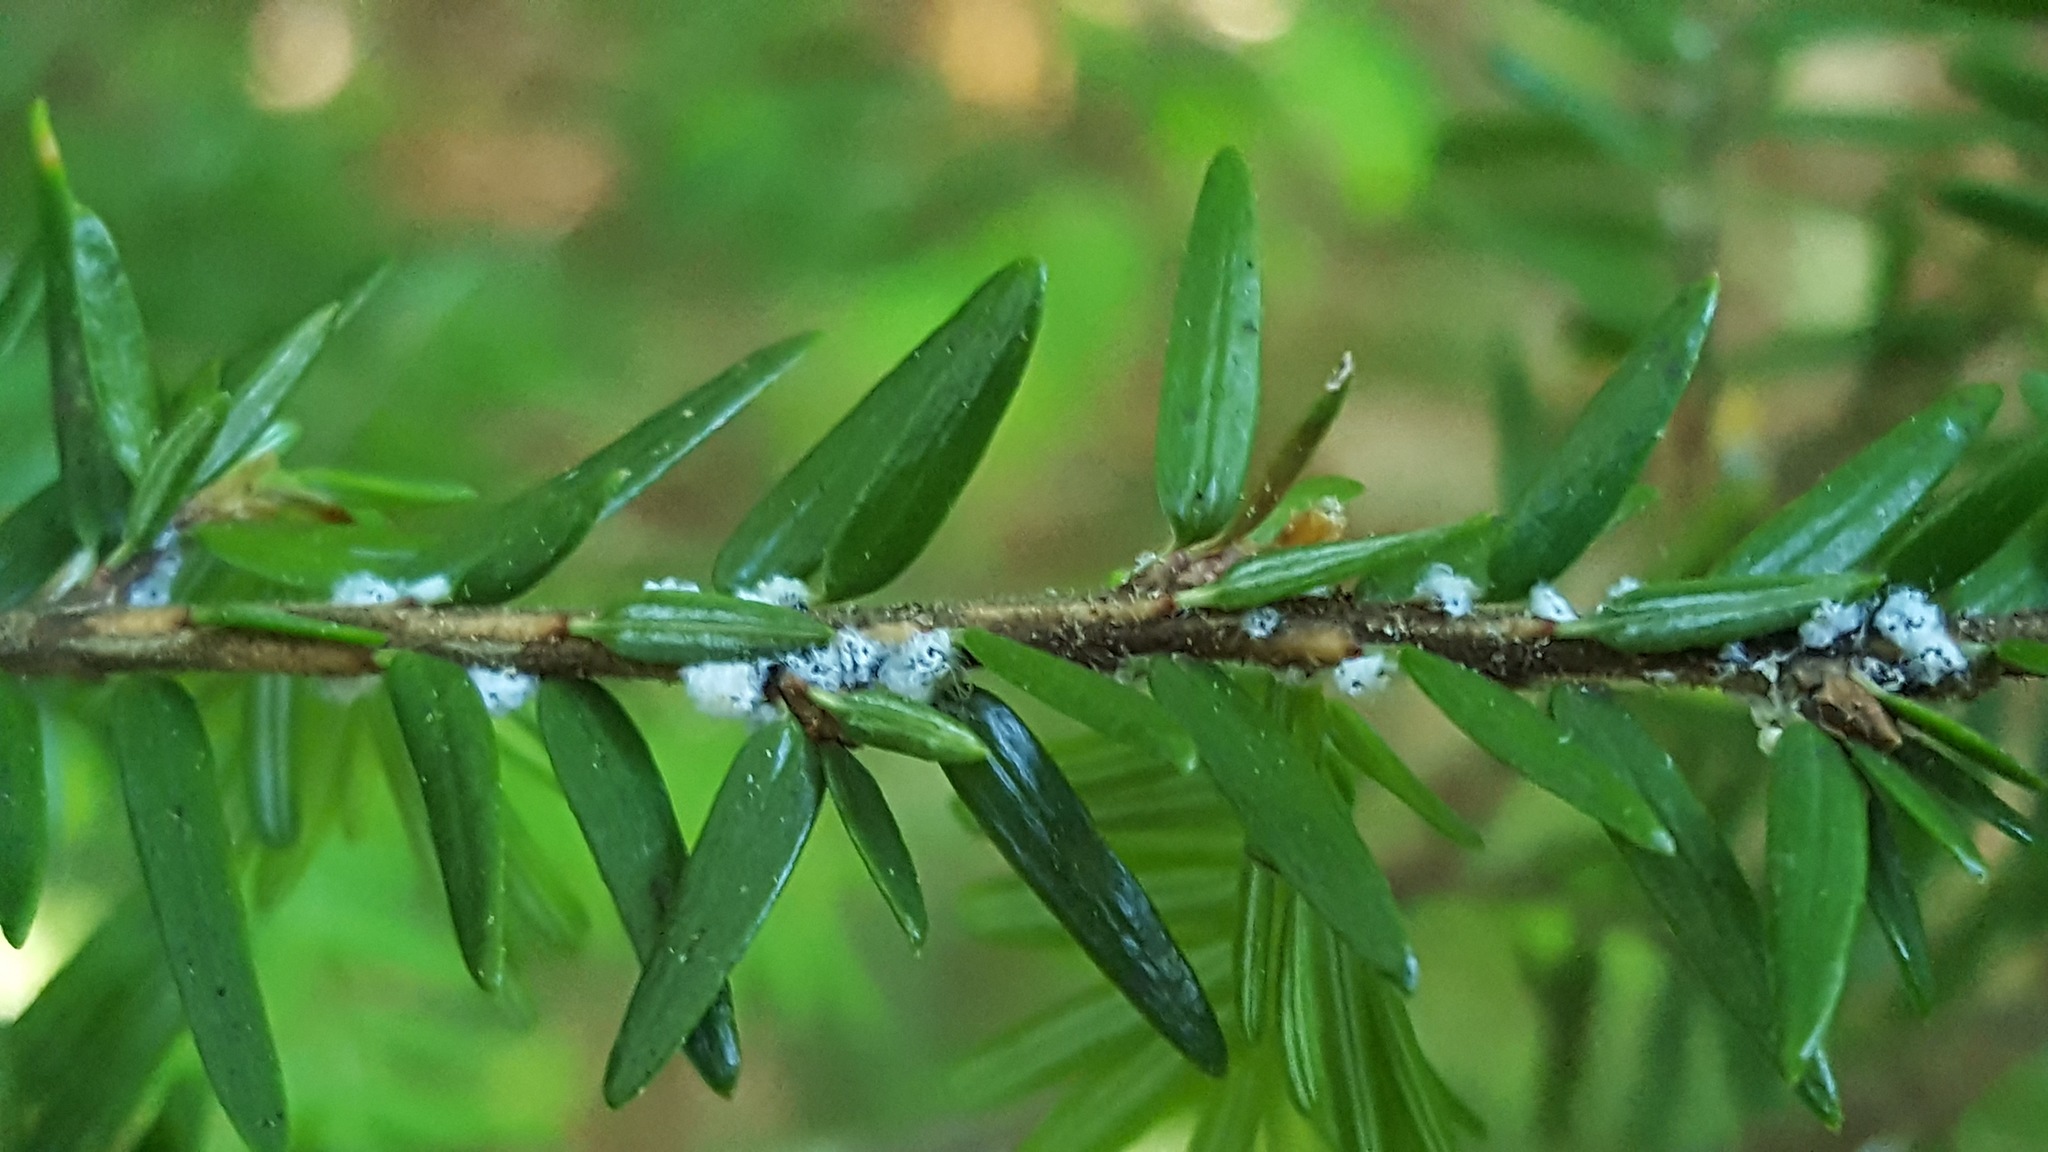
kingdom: Animalia
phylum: Arthropoda
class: Insecta
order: Hemiptera
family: Adelgidae
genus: Adelges
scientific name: Adelges tsugae
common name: Hemlock woolly adelgid
